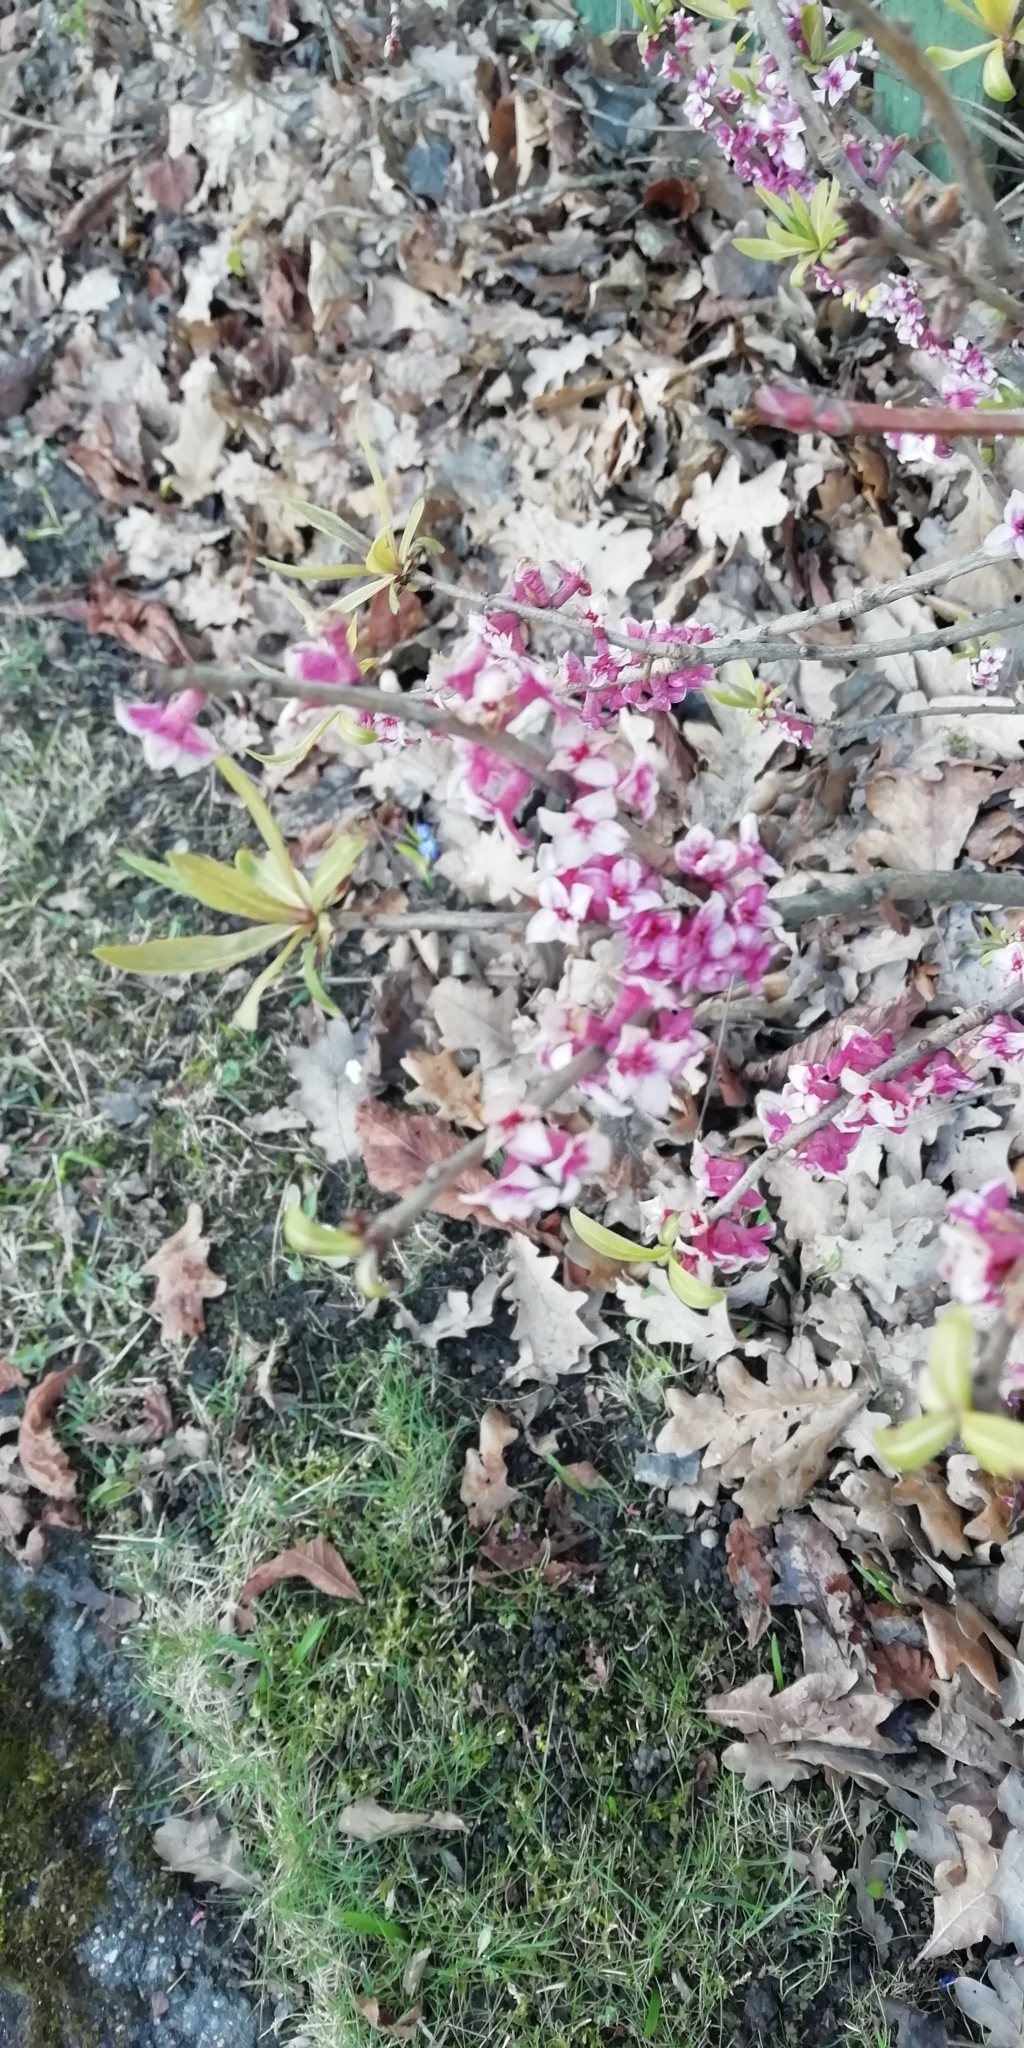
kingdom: Plantae
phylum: Tracheophyta
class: Magnoliopsida
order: Malvales
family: Thymelaeaceae
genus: Daphne
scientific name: Daphne mezereum
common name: Mezereon
